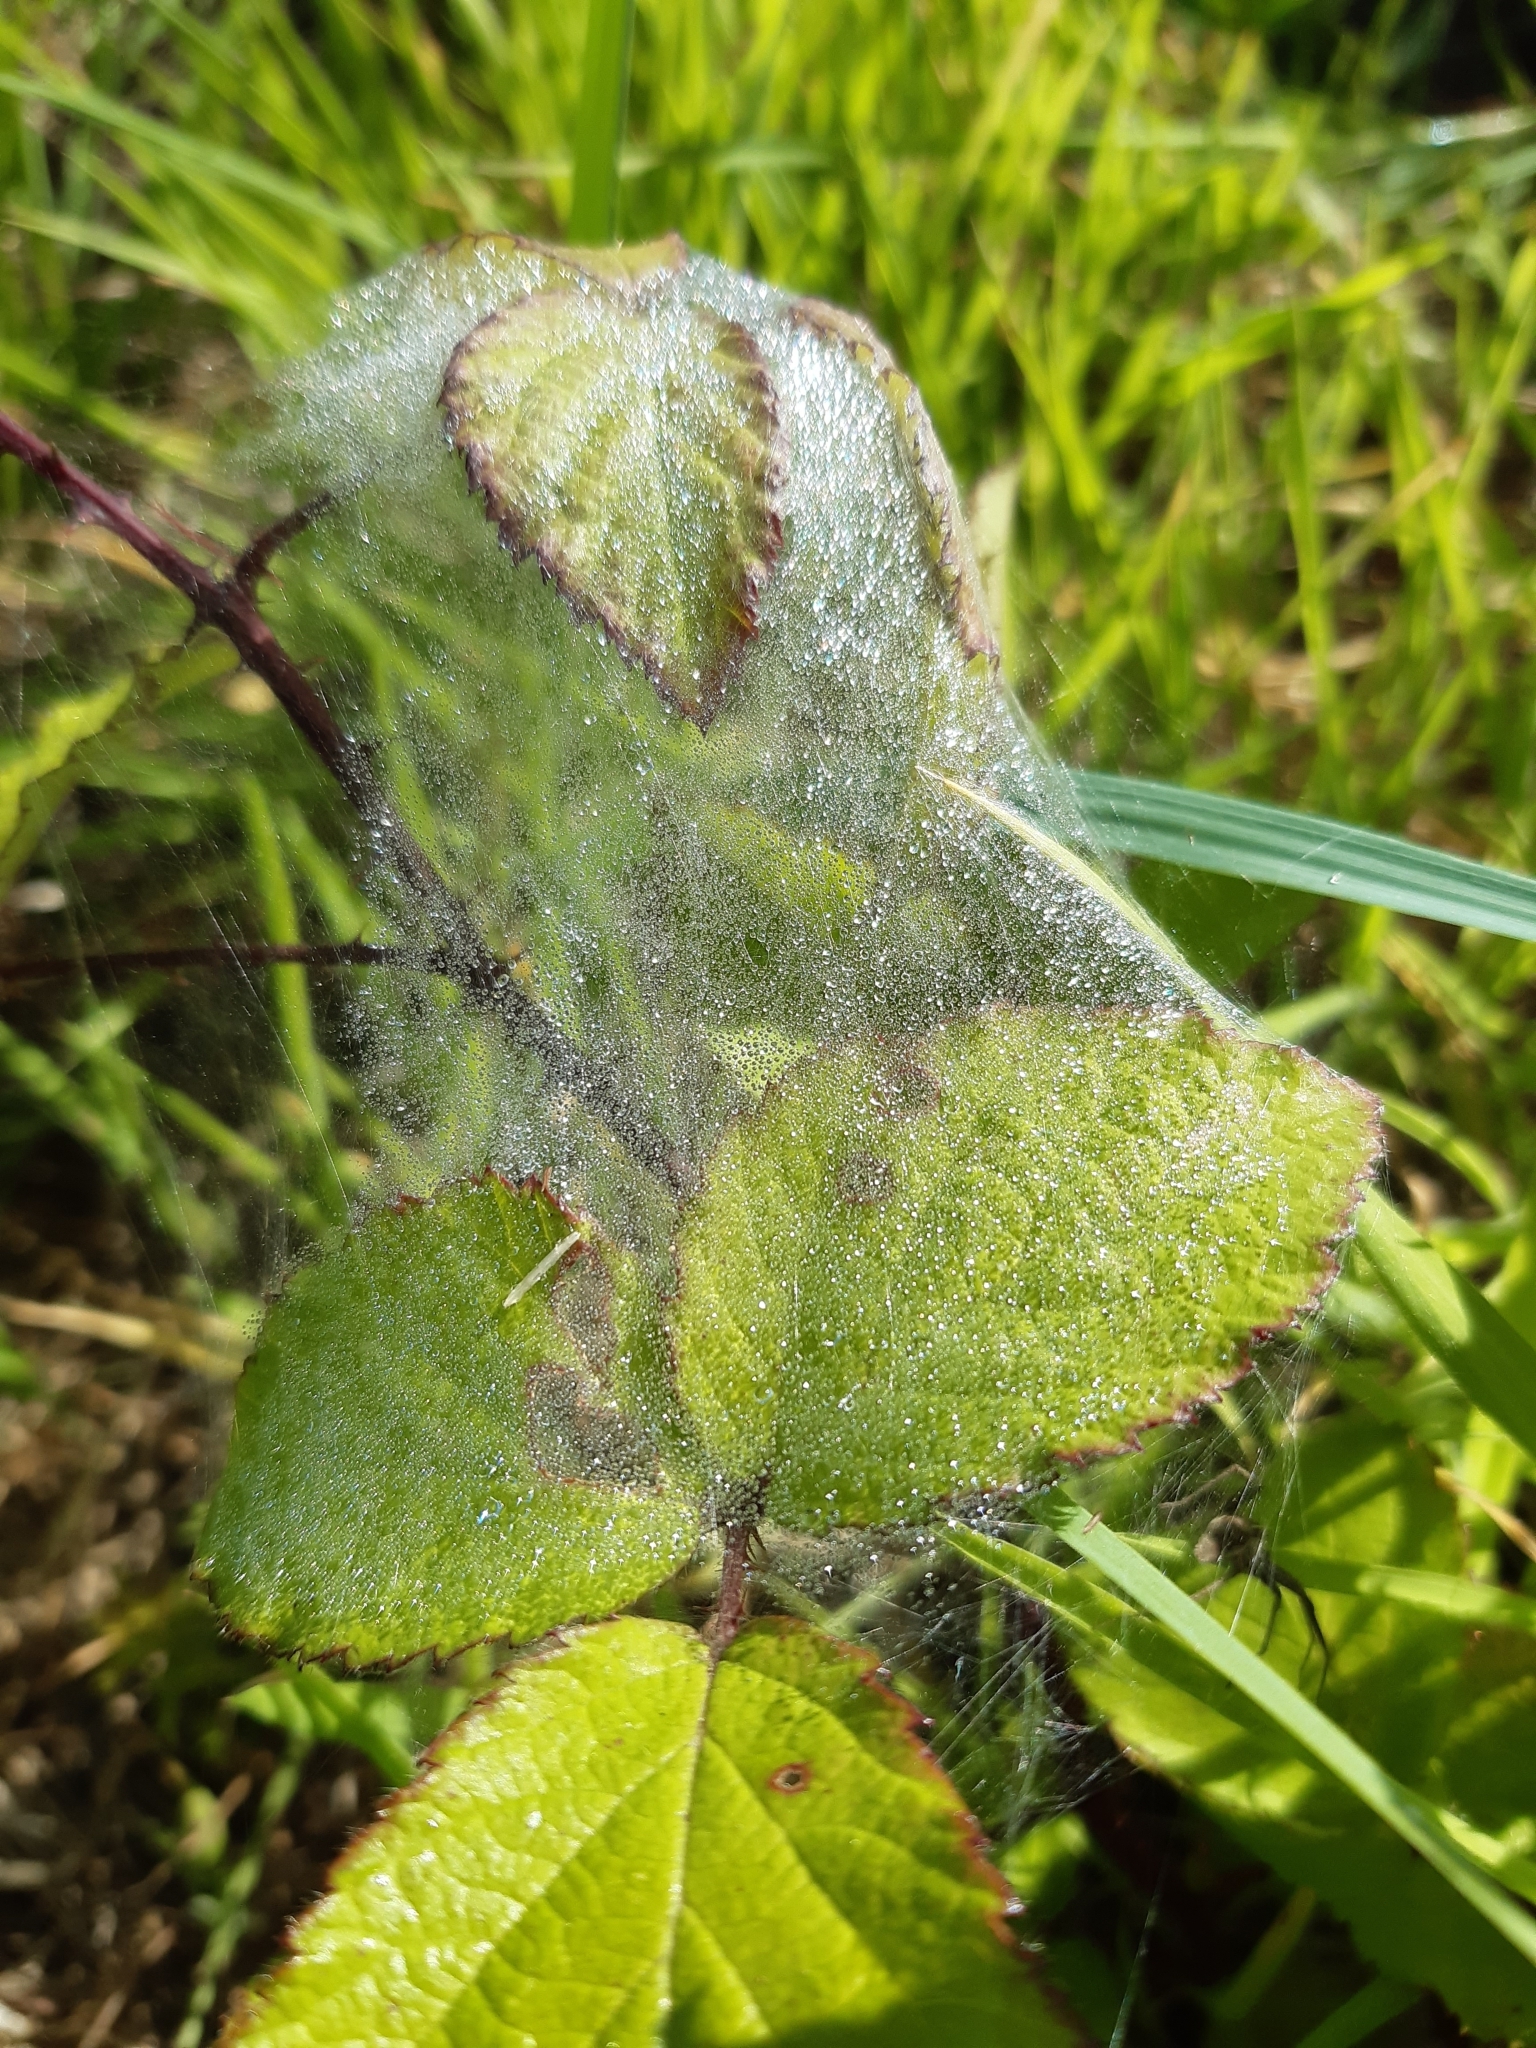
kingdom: Animalia
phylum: Arthropoda
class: Arachnida
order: Araneae
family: Pisauridae
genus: Pisaura
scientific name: Pisaura mirabilis
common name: Tent spider
